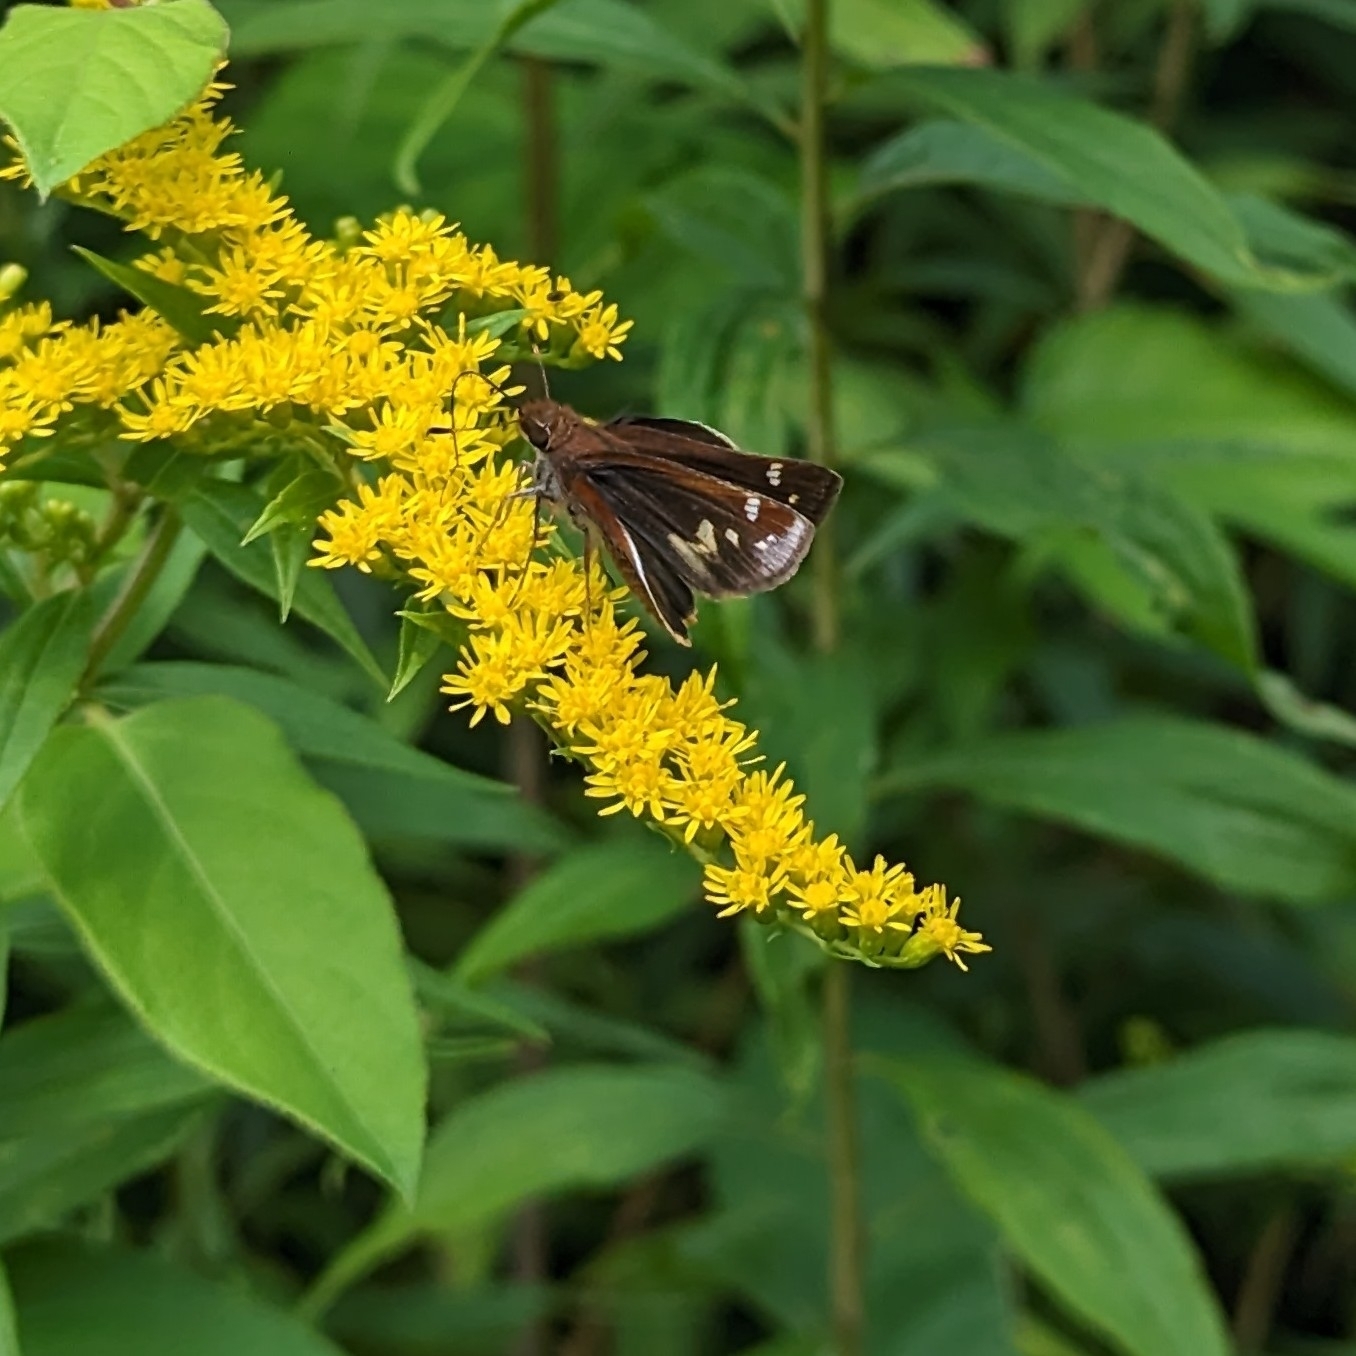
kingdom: Animalia
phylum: Arthropoda
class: Insecta
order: Lepidoptera
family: Hesperiidae
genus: Lon
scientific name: Lon zabulon
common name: Zabulon skipper
